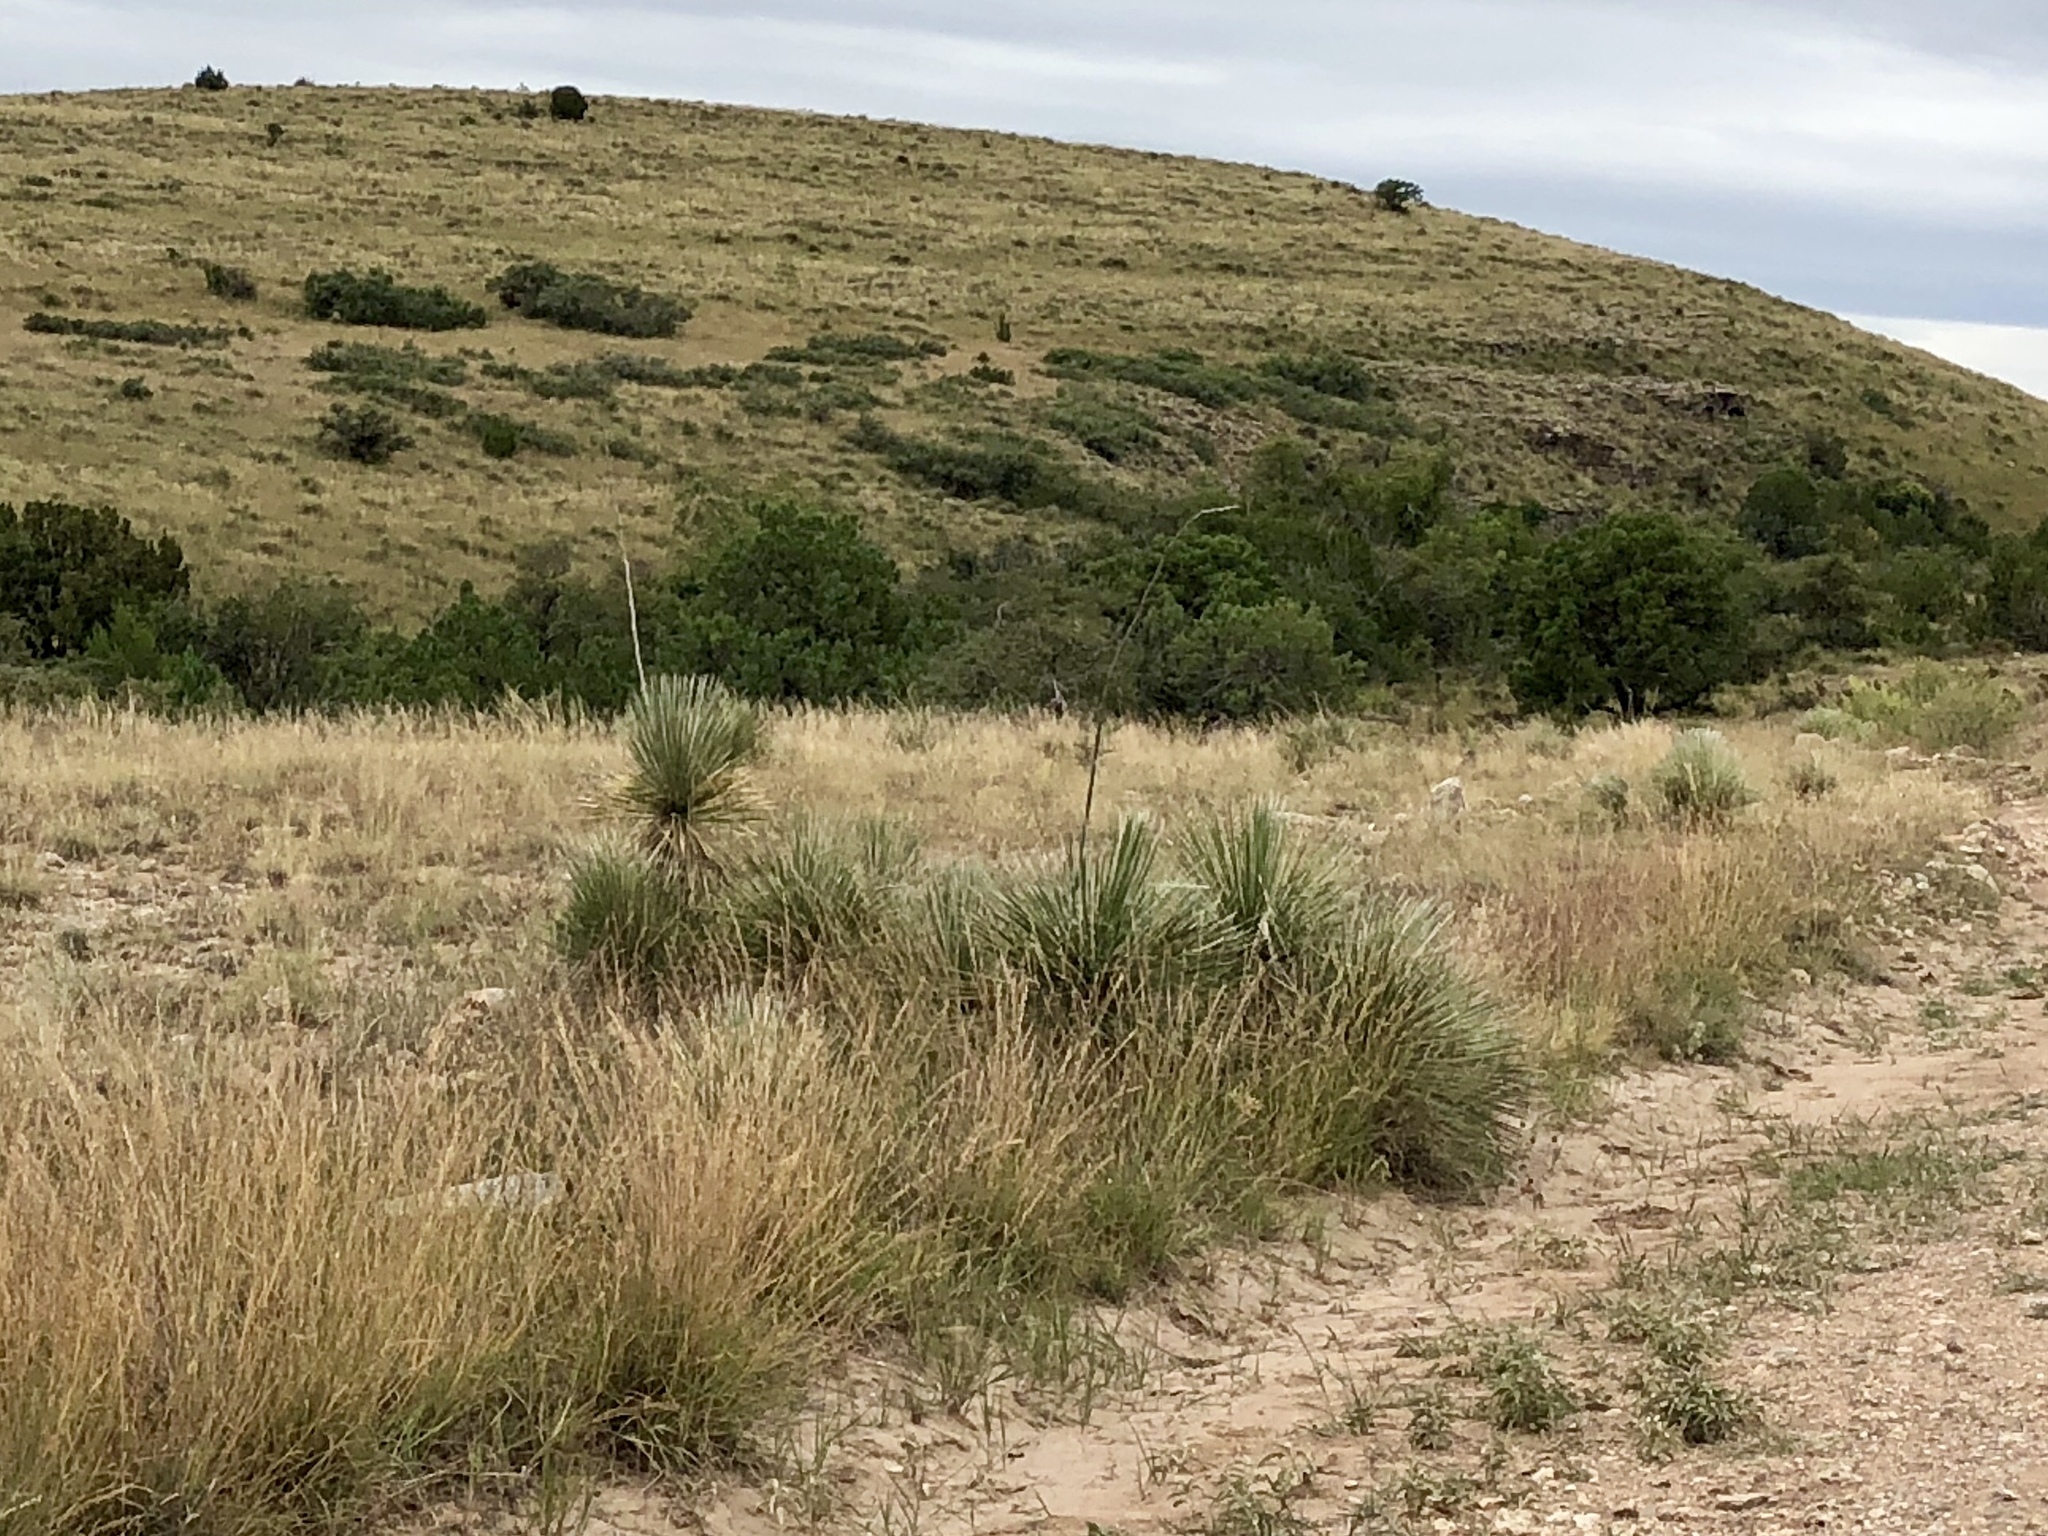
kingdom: Plantae
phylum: Tracheophyta
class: Liliopsida
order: Asparagales
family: Asparagaceae
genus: Yucca
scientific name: Yucca elata
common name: Palmella
